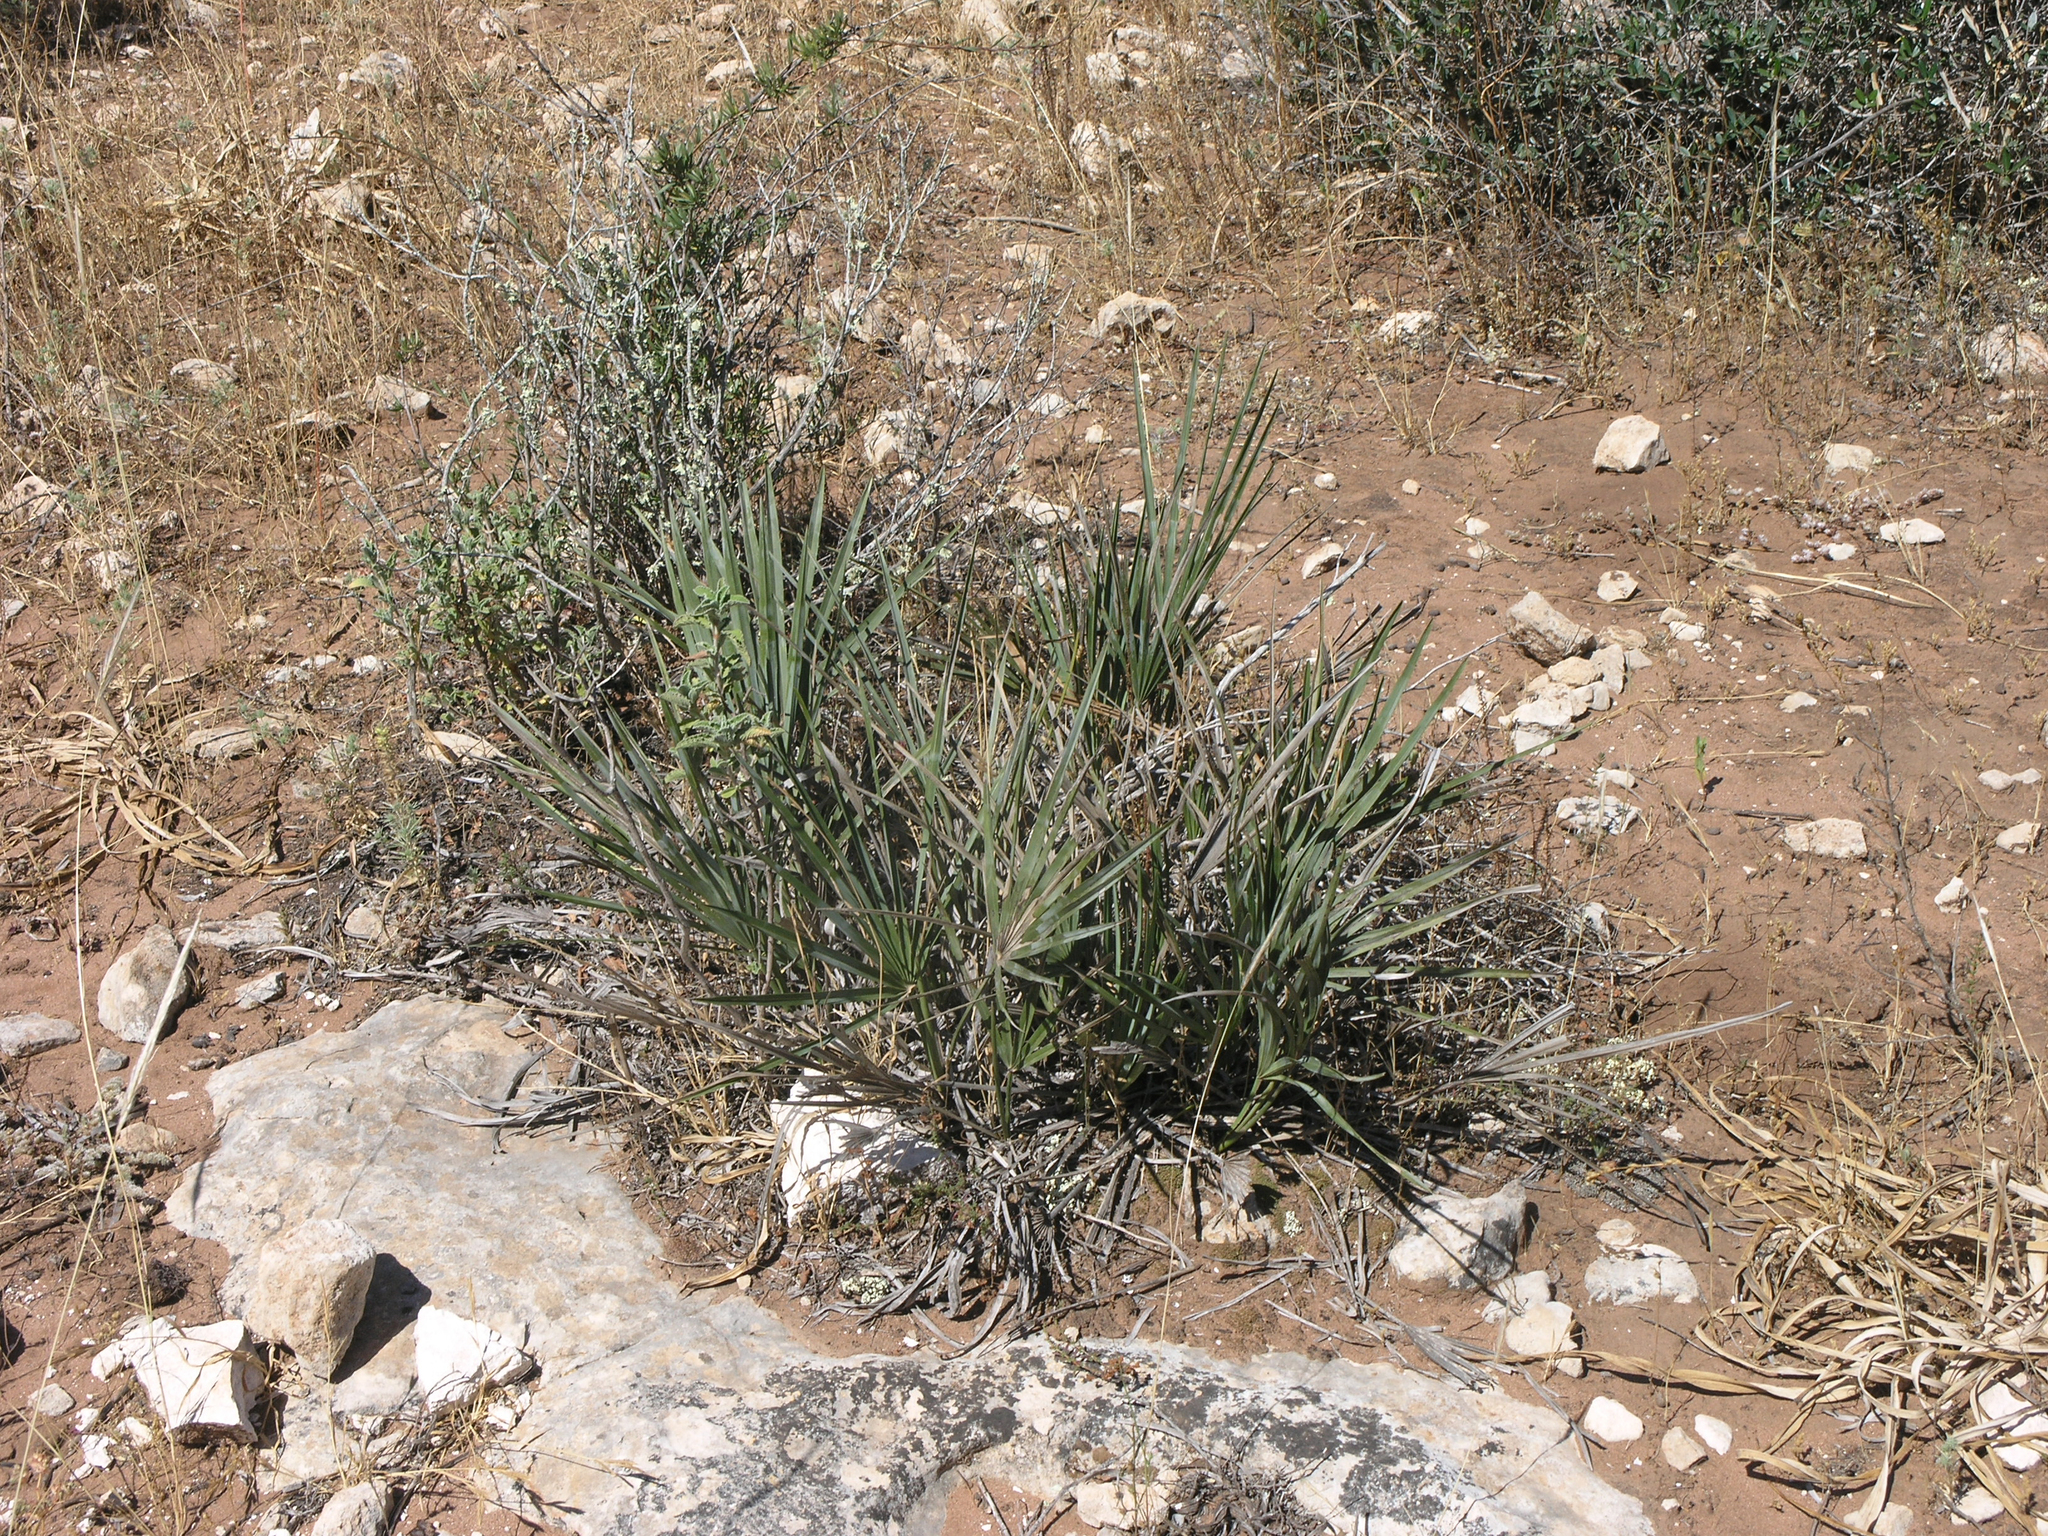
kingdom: Plantae
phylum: Tracheophyta
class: Liliopsida
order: Arecales
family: Arecaceae
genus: Chamaerops
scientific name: Chamaerops humilis
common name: Dwarf fan palm
